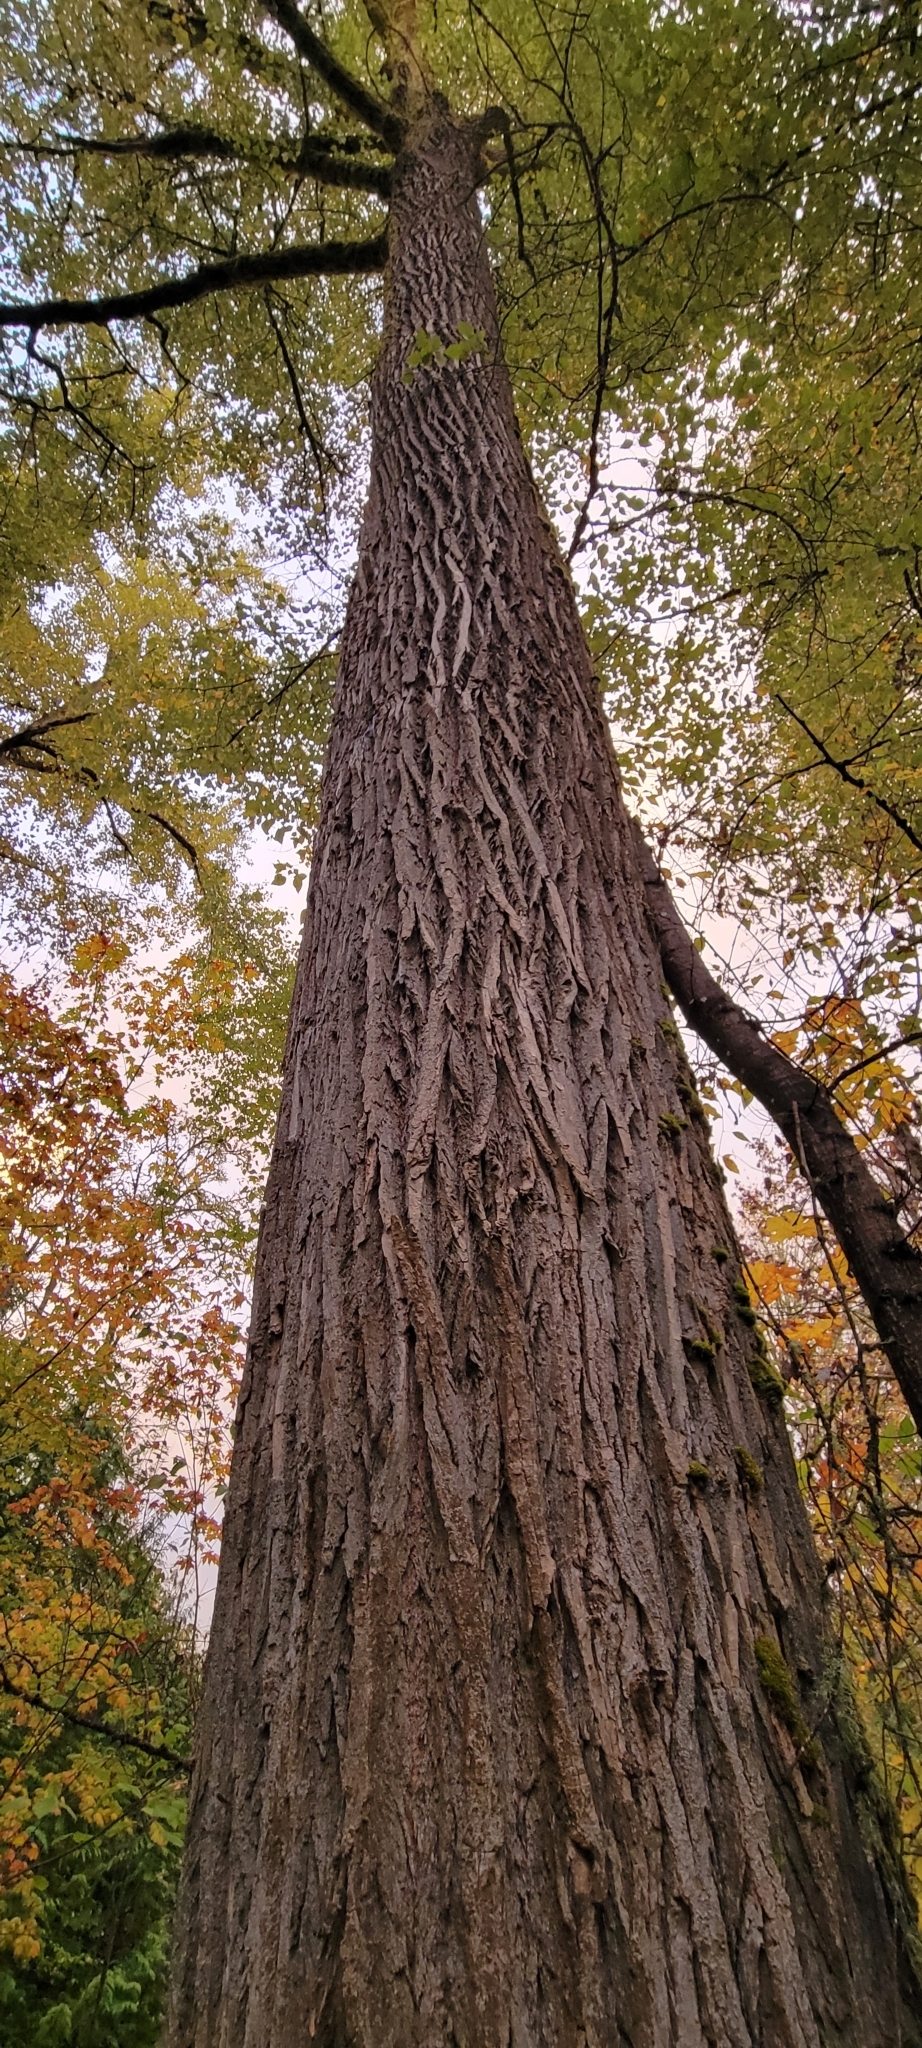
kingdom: Plantae
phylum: Tracheophyta
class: Magnoliopsida
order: Malpighiales
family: Salicaceae
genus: Populus
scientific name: Populus trichocarpa
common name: Black cottonwood
